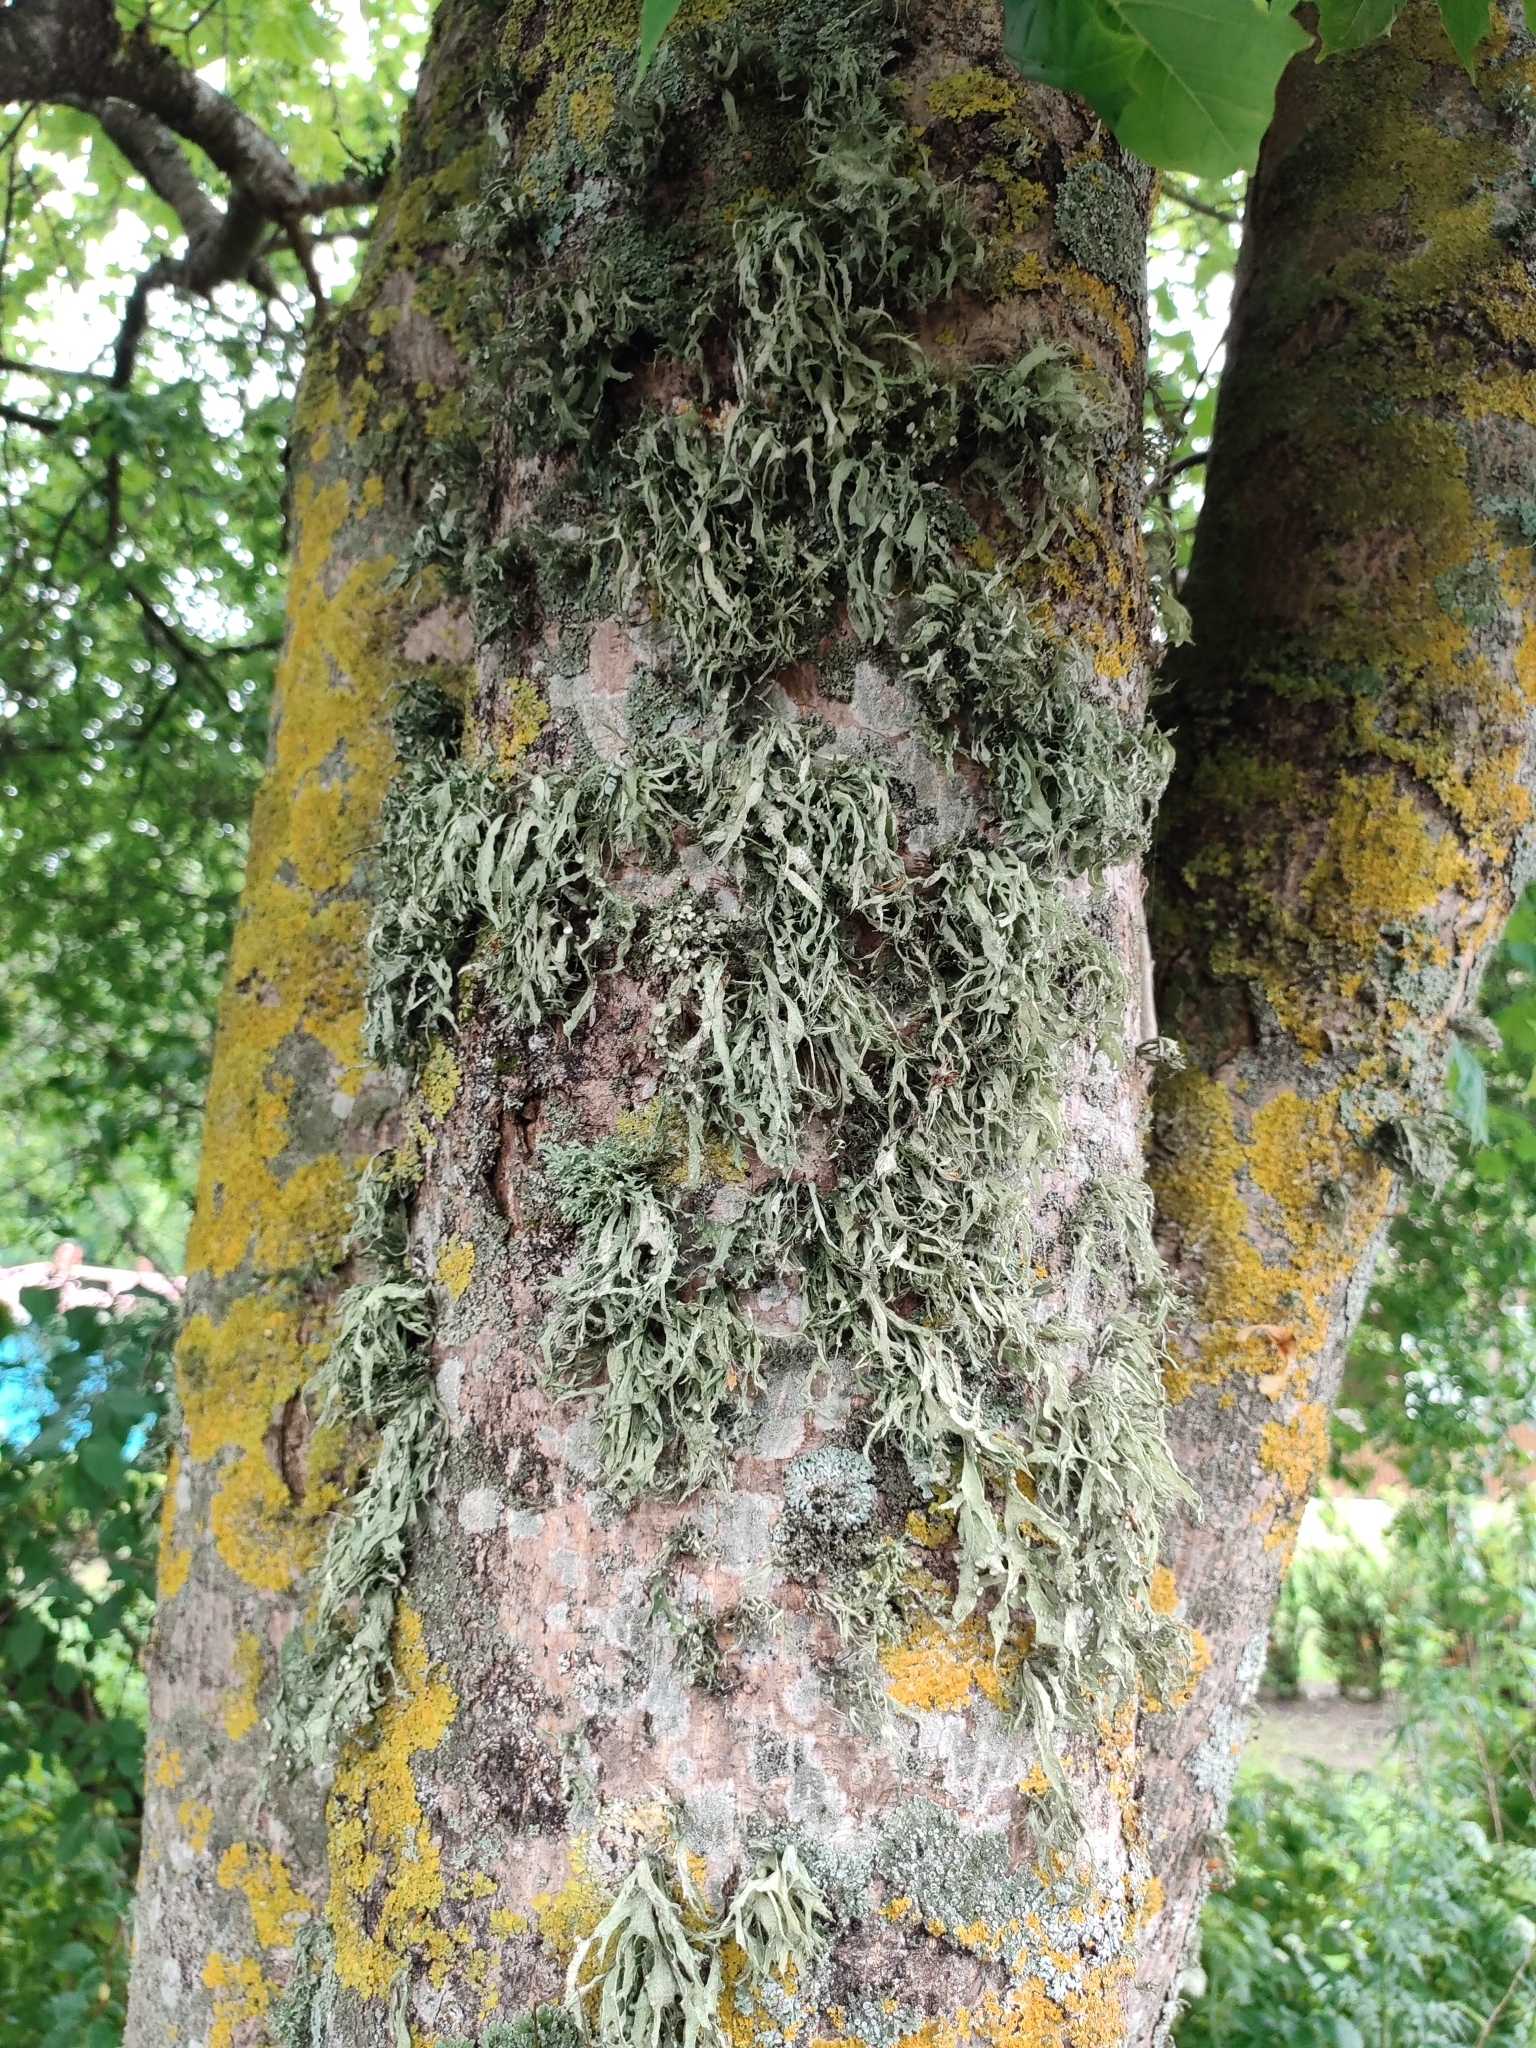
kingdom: Fungi
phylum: Ascomycota
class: Lecanoromycetes
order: Lecanorales
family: Ramalinaceae
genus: Ramalina
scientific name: Ramalina farinacea
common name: Farinose cartilage lichen
